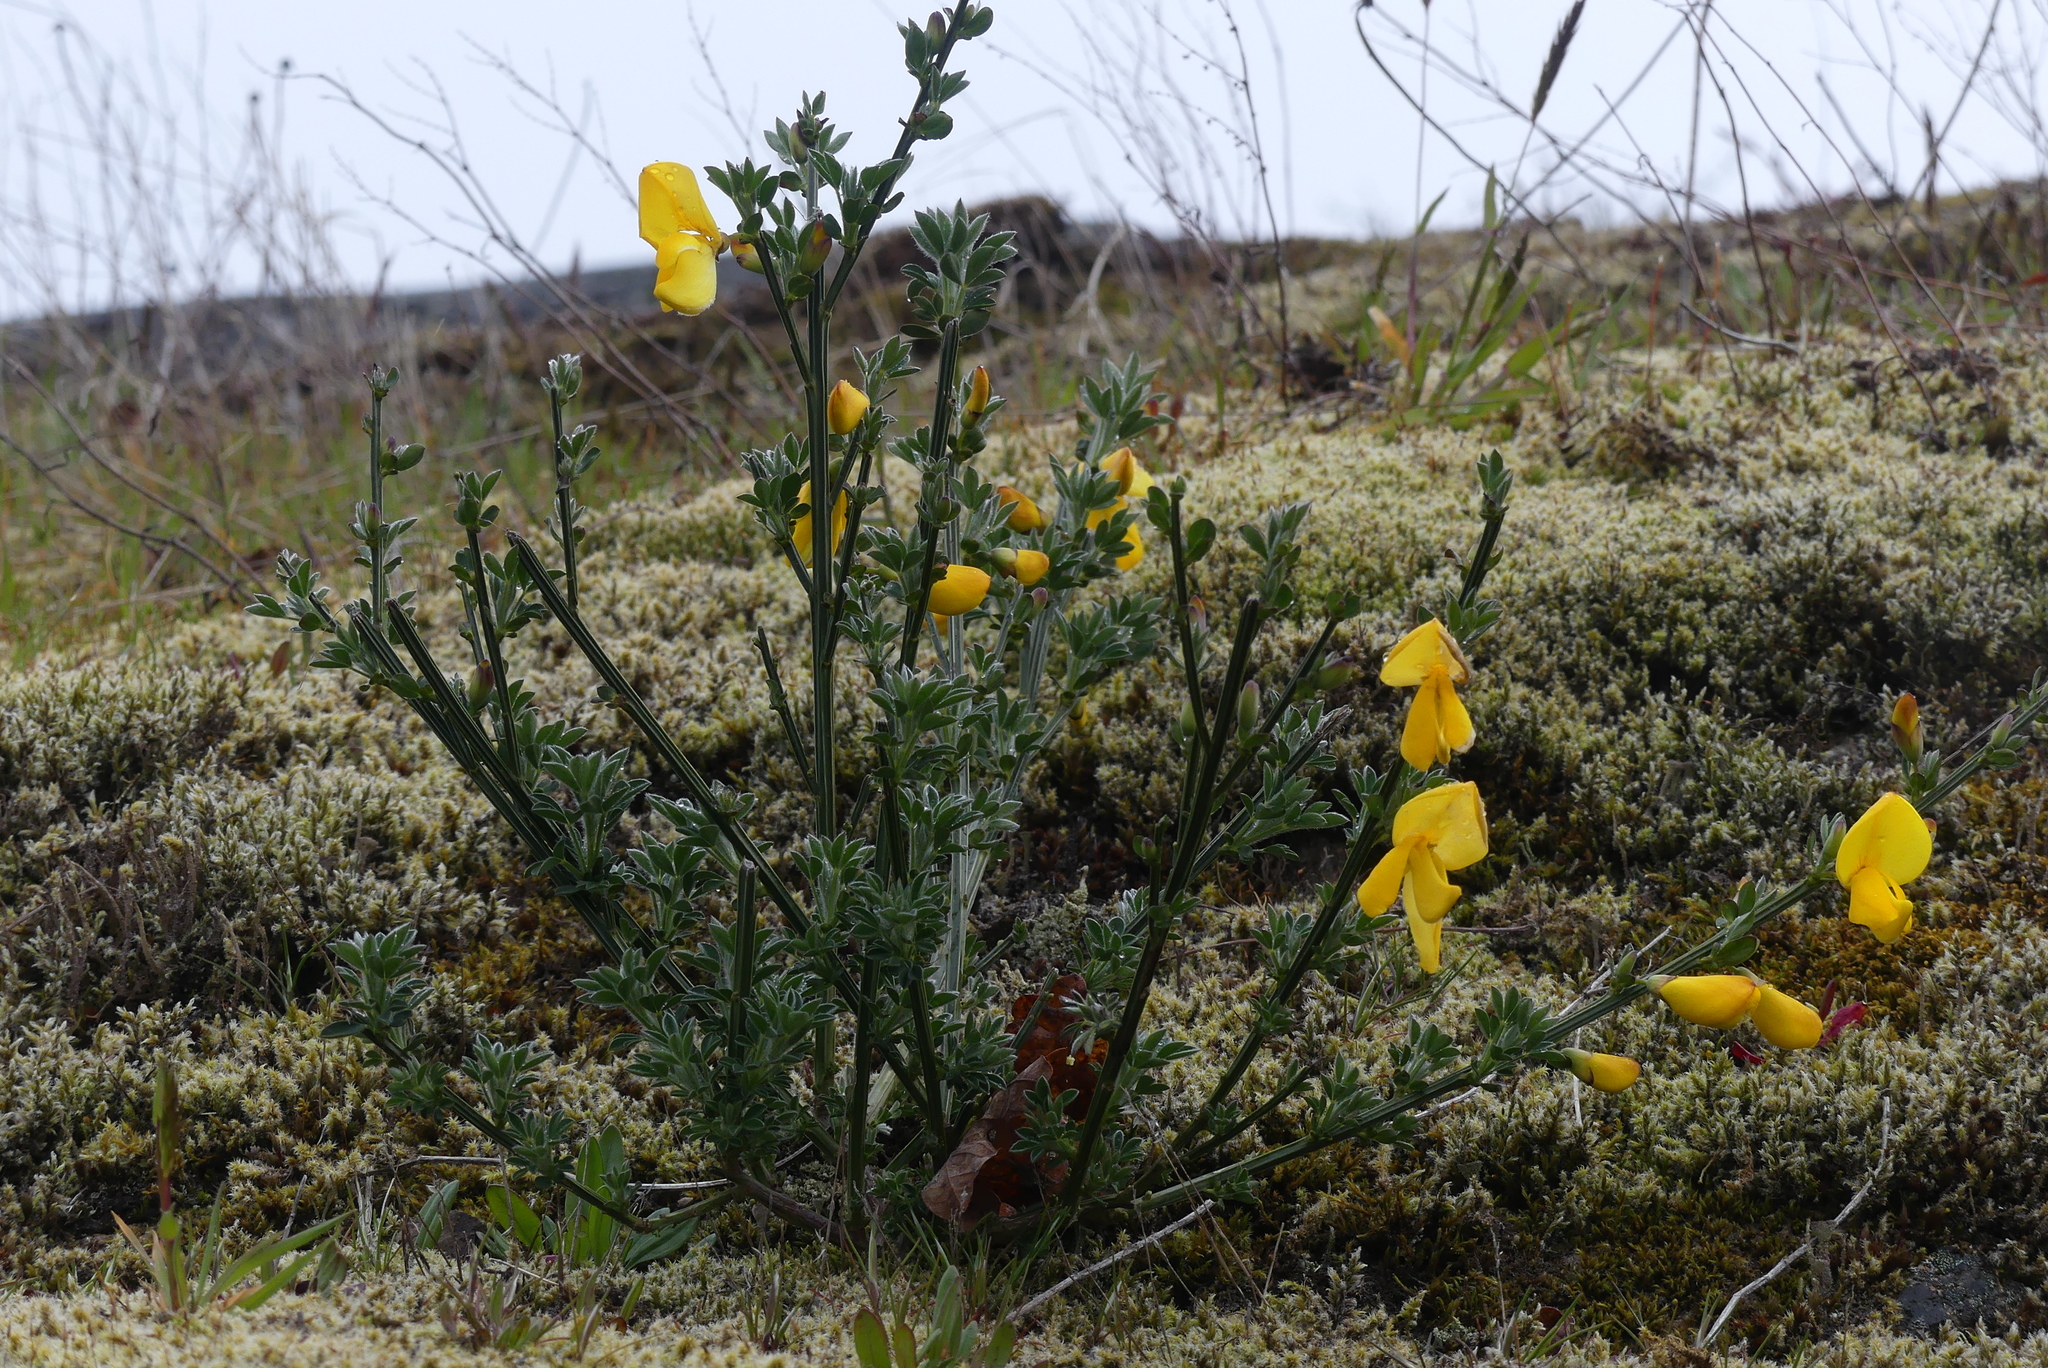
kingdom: Plantae
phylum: Tracheophyta
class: Magnoliopsida
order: Fabales
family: Fabaceae
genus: Cytisus
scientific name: Cytisus scoparius
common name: Scotch broom
